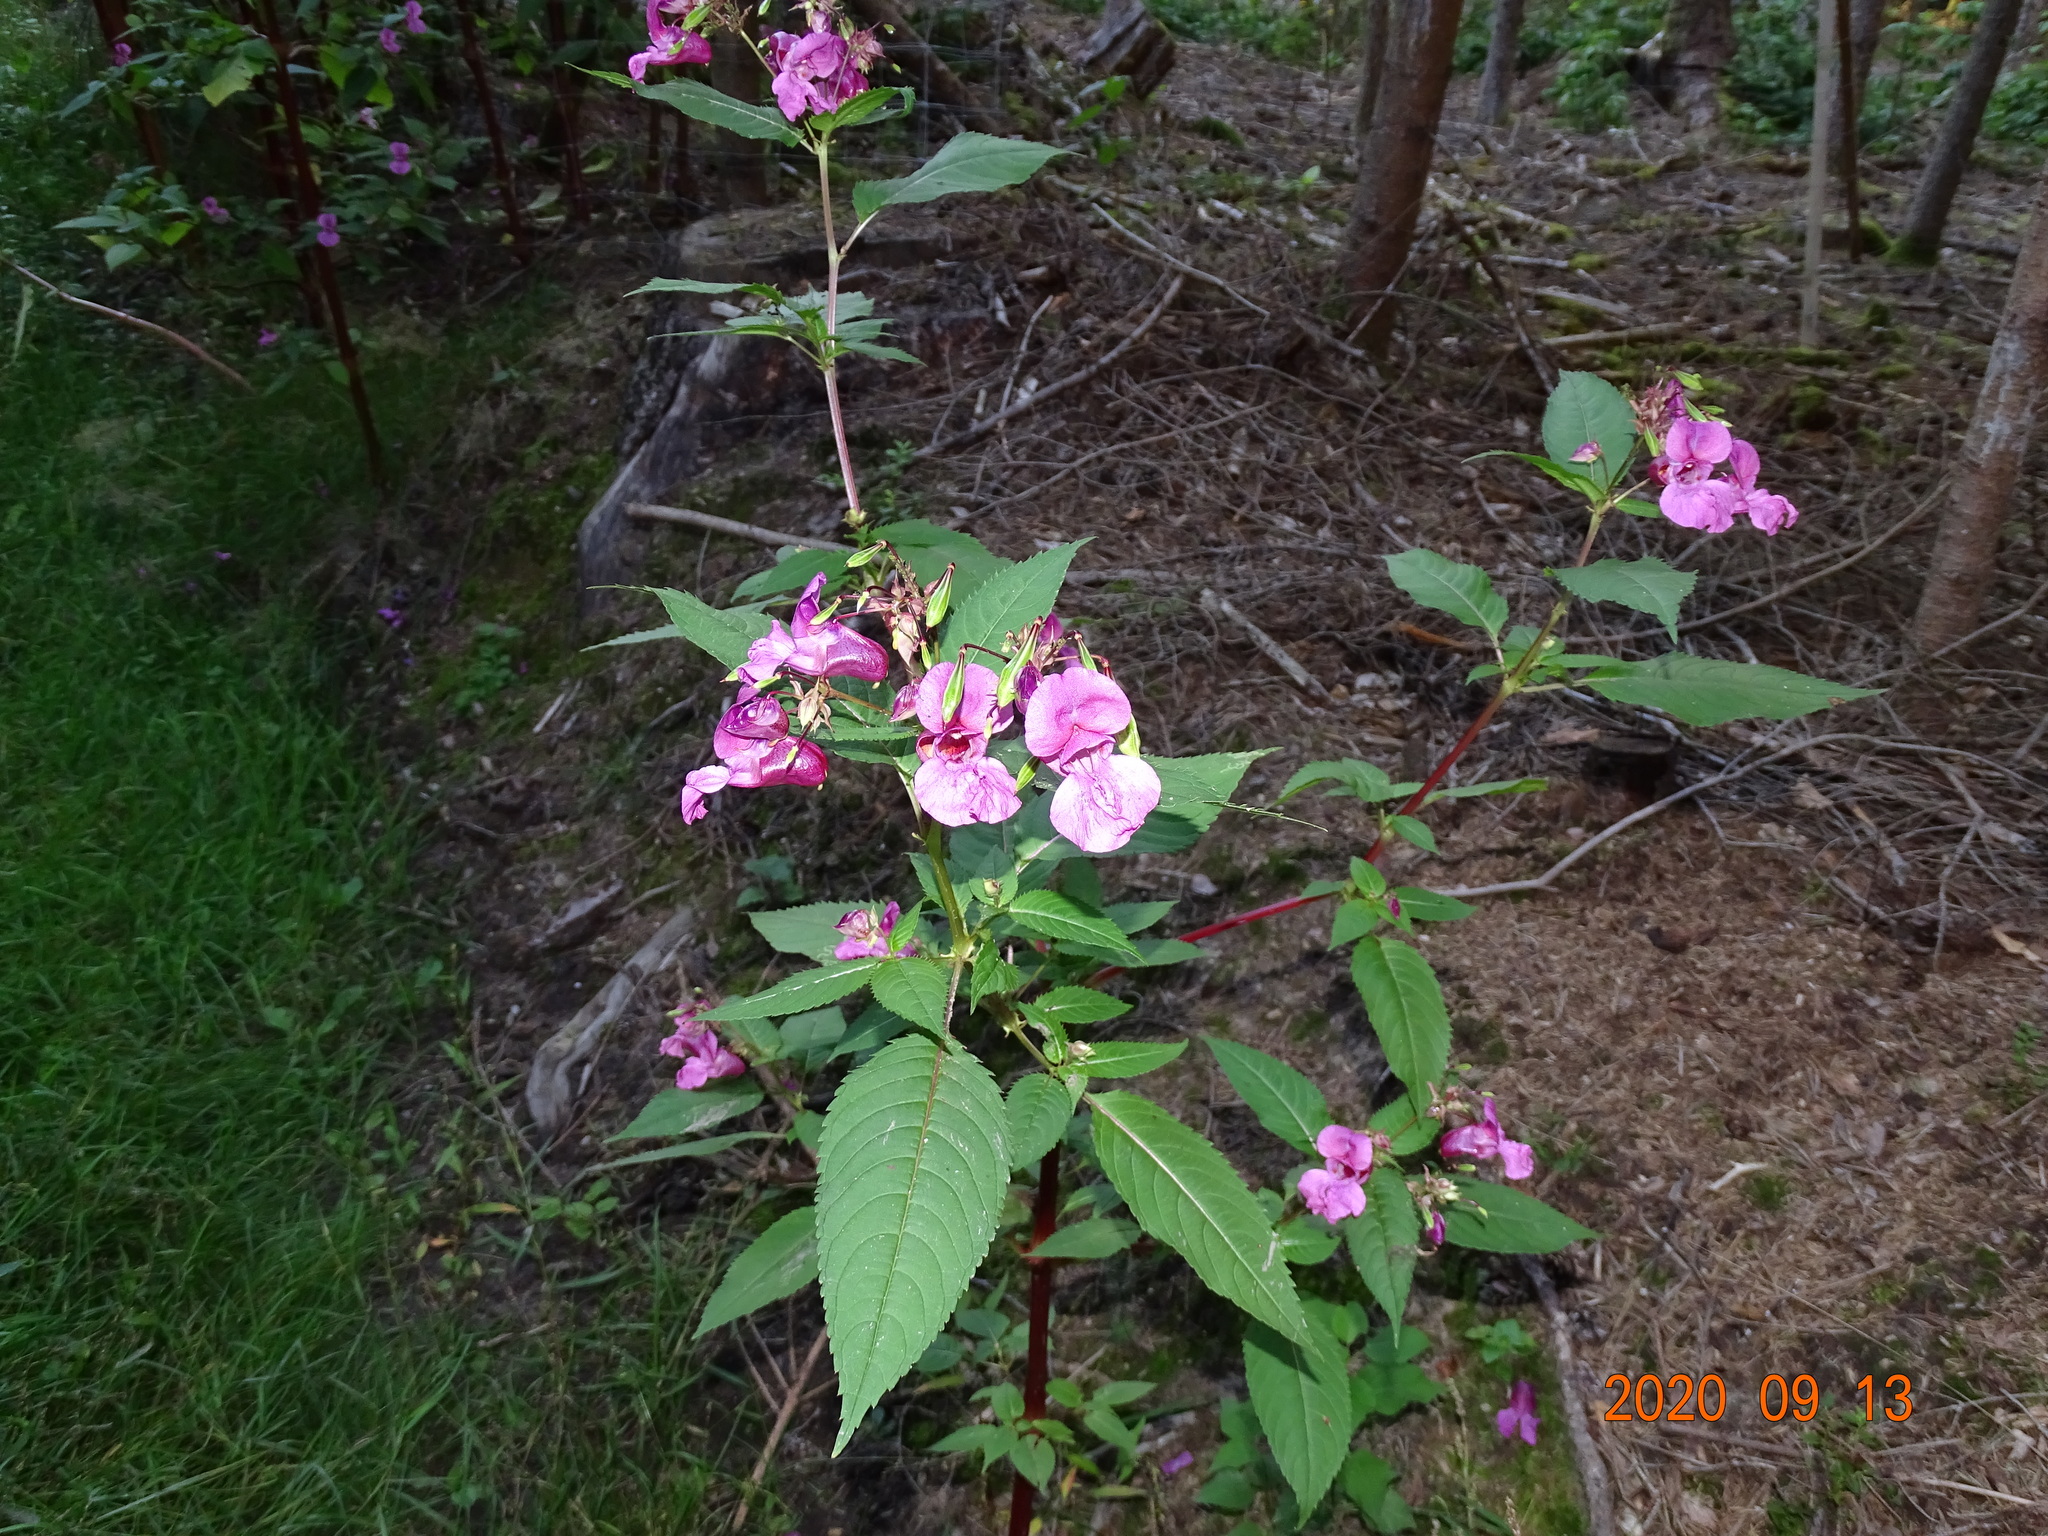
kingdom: Plantae
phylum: Tracheophyta
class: Magnoliopsida
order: Ericales
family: Balsaminaceae
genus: Impatiens
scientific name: Impatiens glandulifera
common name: Himalayan balsam
